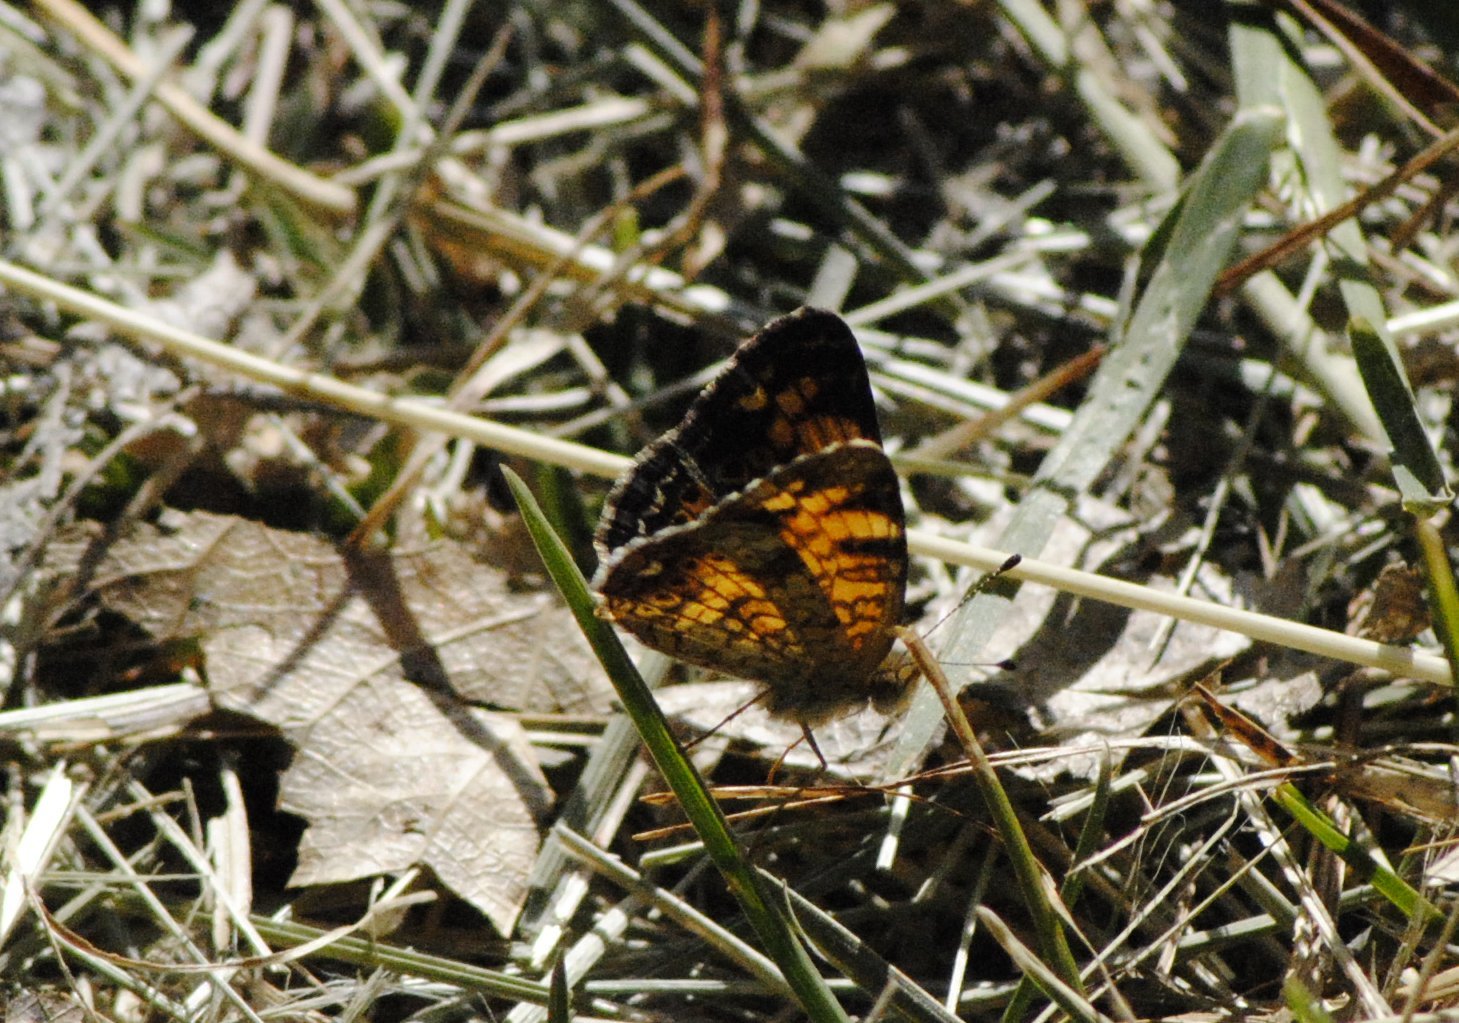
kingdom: Animalia
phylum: Arthropoda
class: Insecta
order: Lepidoptera
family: Nymphalidae
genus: Phyciodes
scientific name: Phyciodes tharos
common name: Pearl crescent
